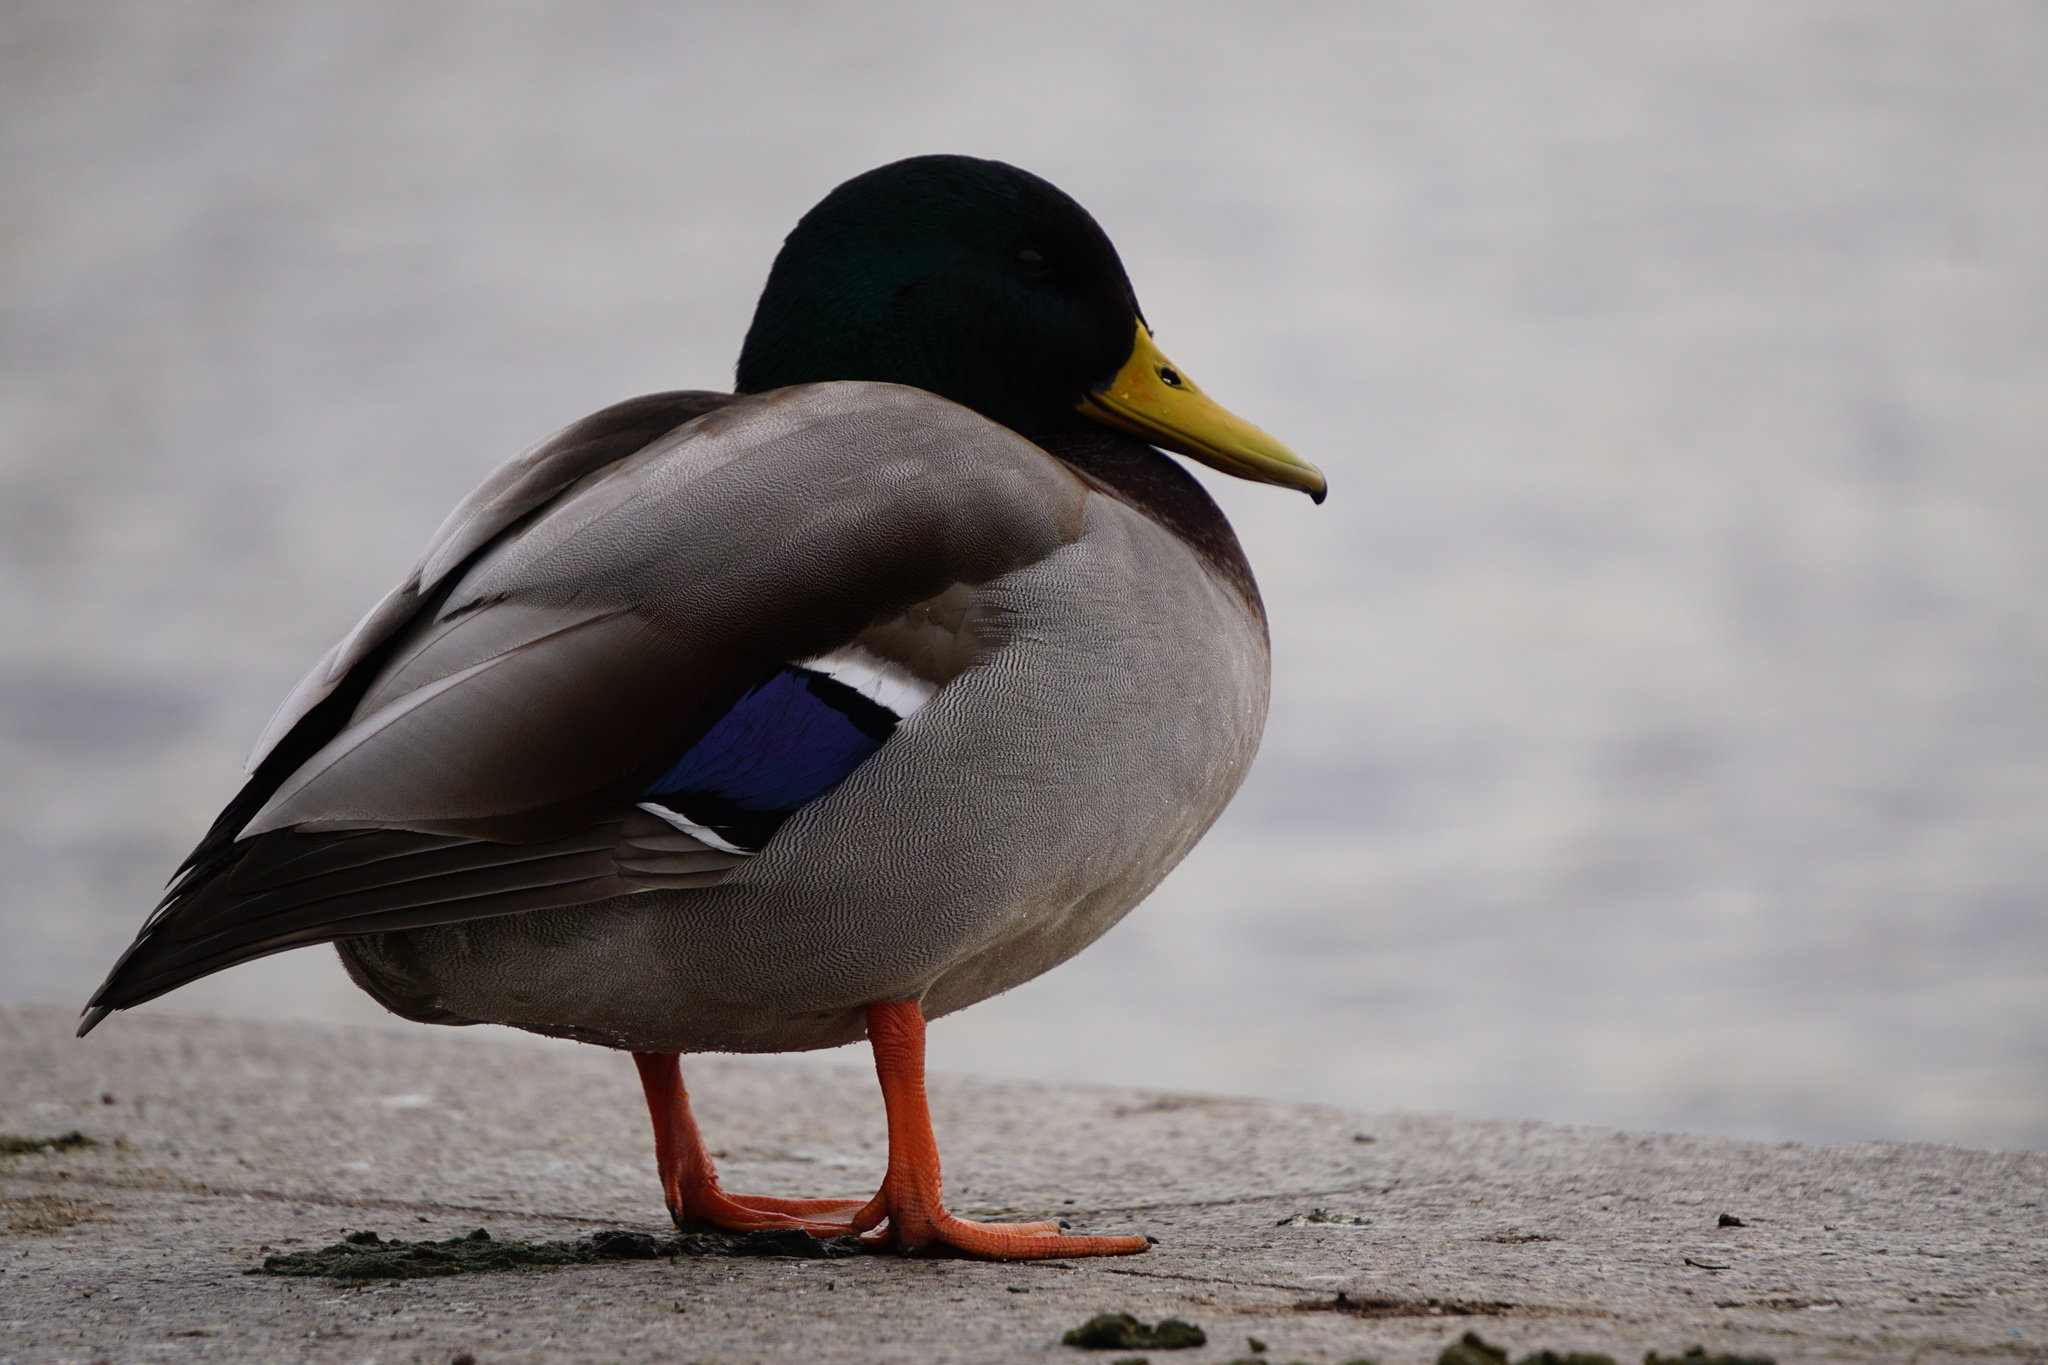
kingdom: Animalia
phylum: Chordata
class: Aves
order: Anseriformes
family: Anatidae
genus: Anas
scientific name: Anas platyrhynchos
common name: Mallard
